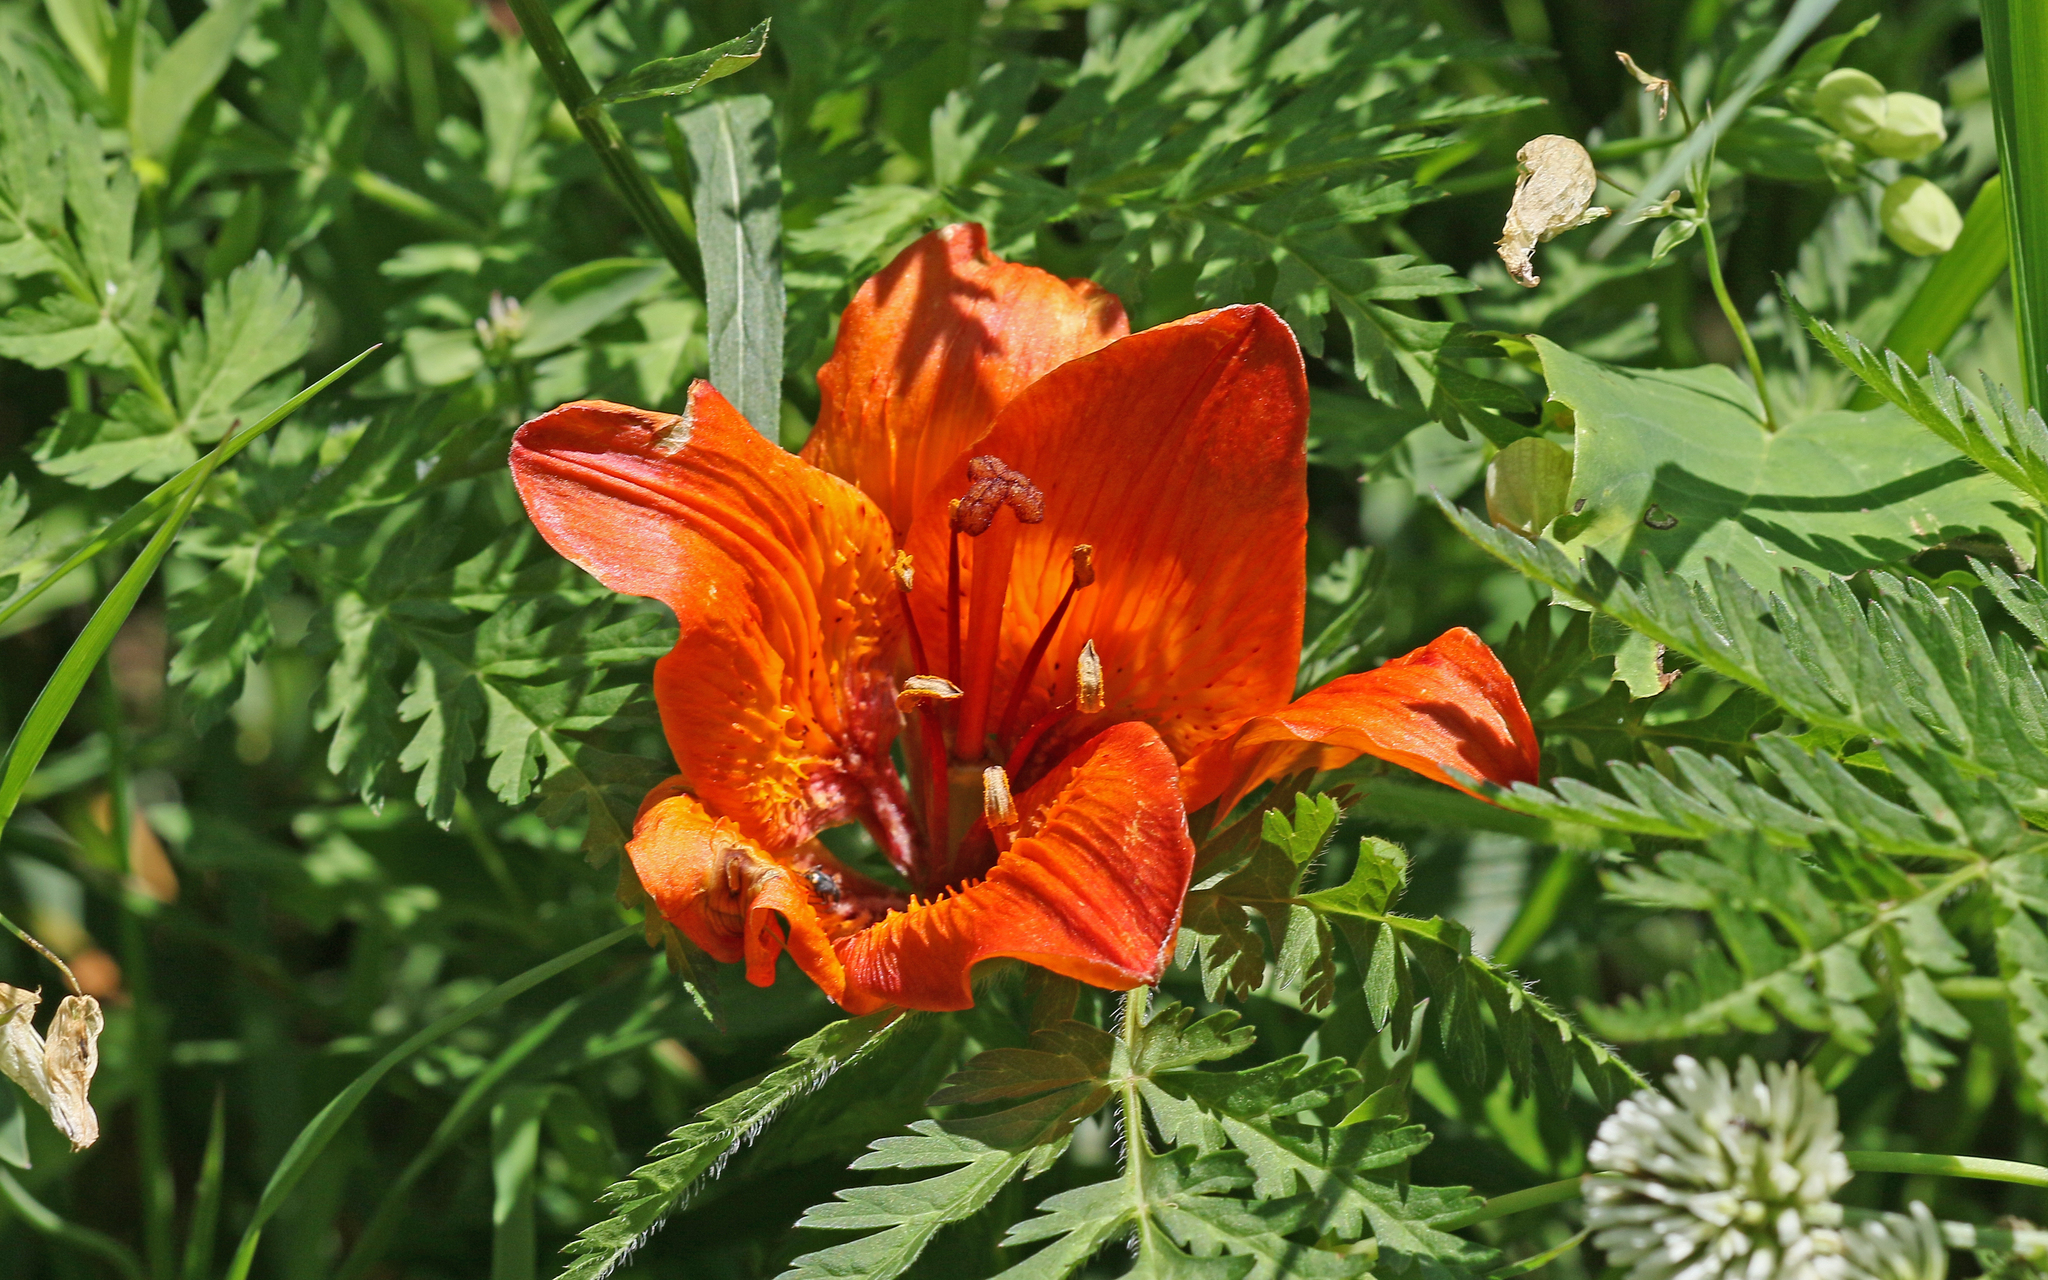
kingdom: Plantae
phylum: Tracheophyta
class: Liliopsida
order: Liliales
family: Liliaceae
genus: Lilium
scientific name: Lilium bulbiferum
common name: Orange lily
